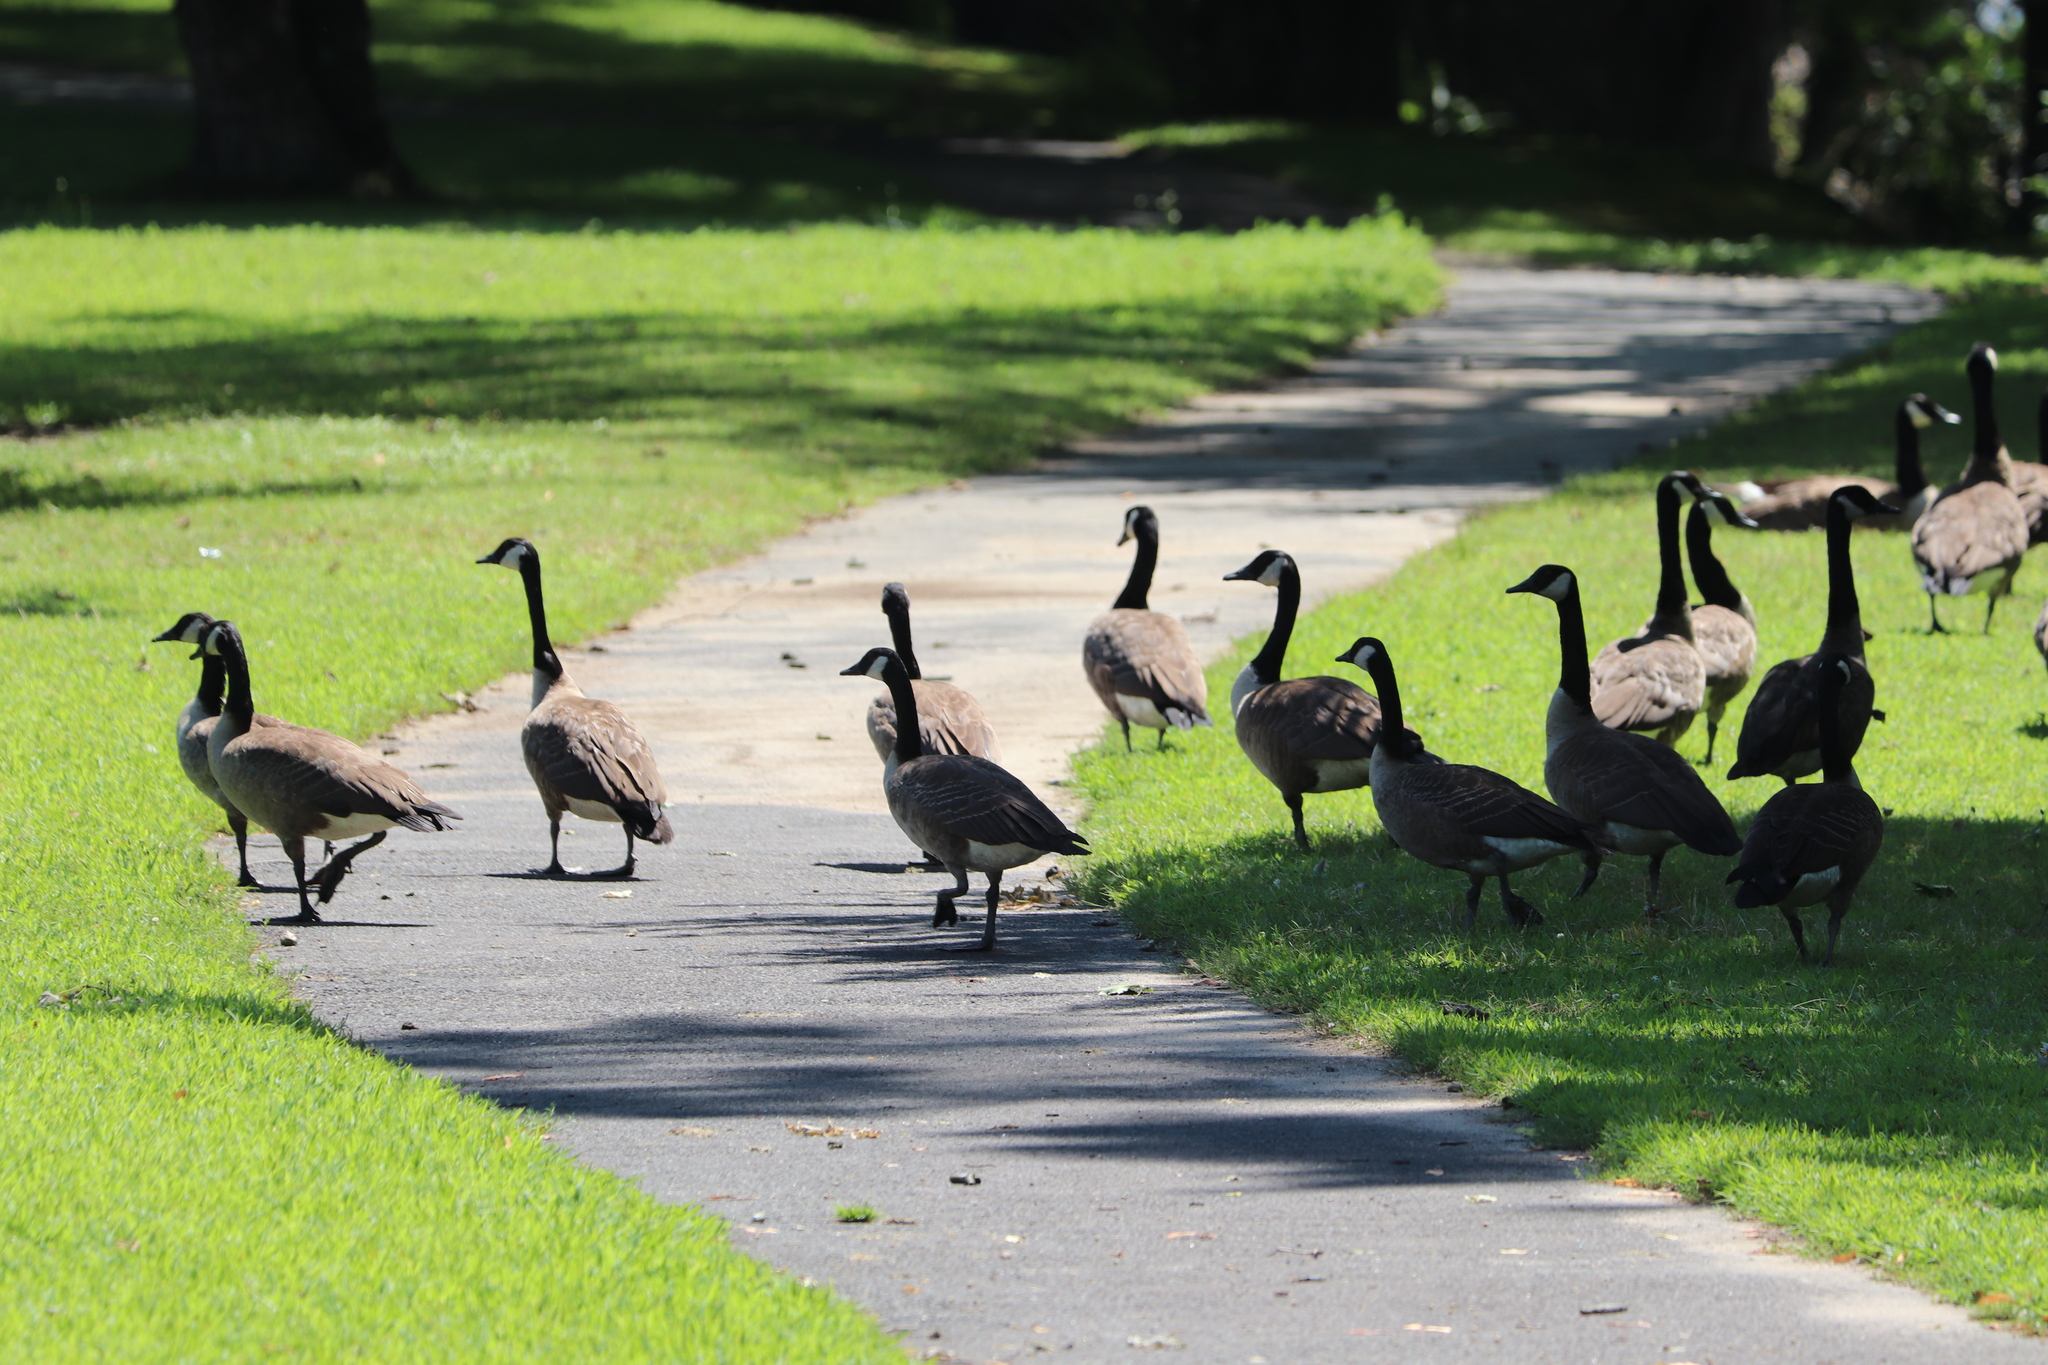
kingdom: Animalia
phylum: Chordata
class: Aves
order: Anseriformes
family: Anatidae
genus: Branta
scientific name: Branta canadensis
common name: Canada goose
